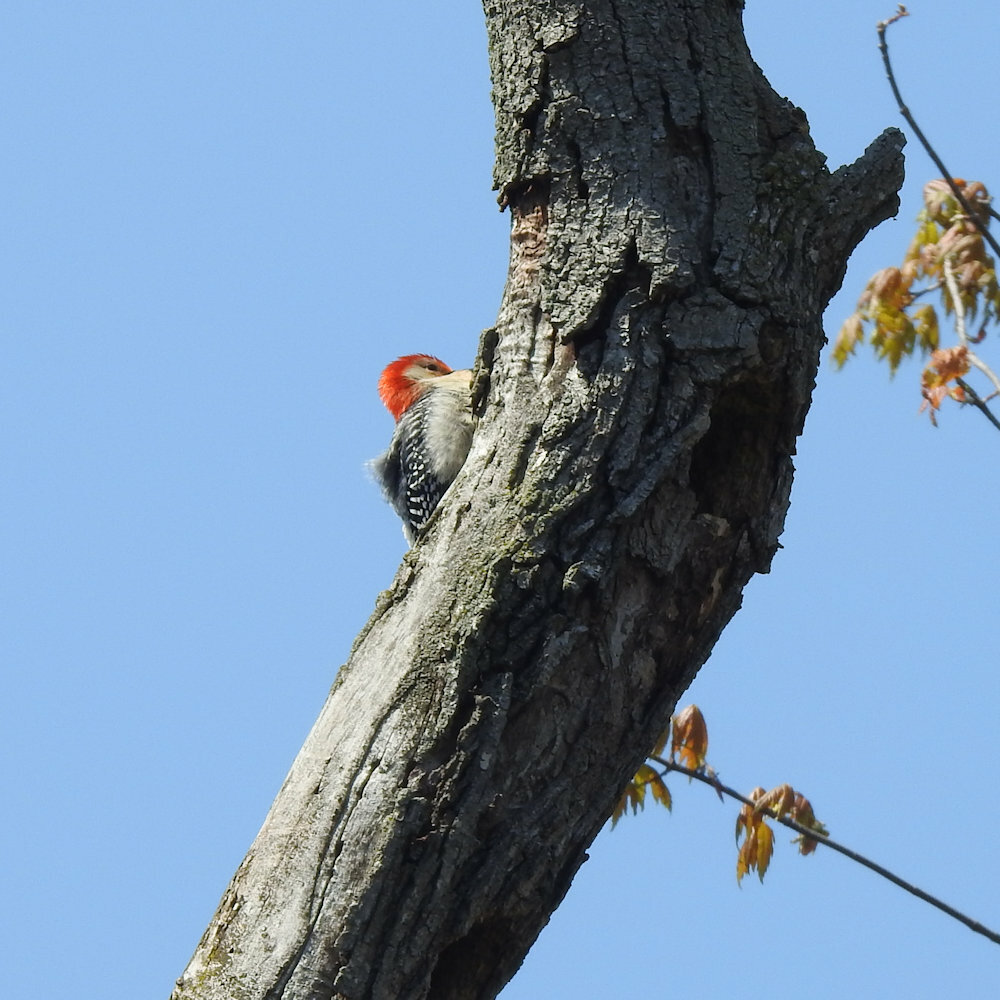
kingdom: Animalia
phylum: Chordata
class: Aves
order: Piciformes
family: Picidae
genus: Melanerpes
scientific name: Melanerpes carolinus
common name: Red-bellied woodpecker
